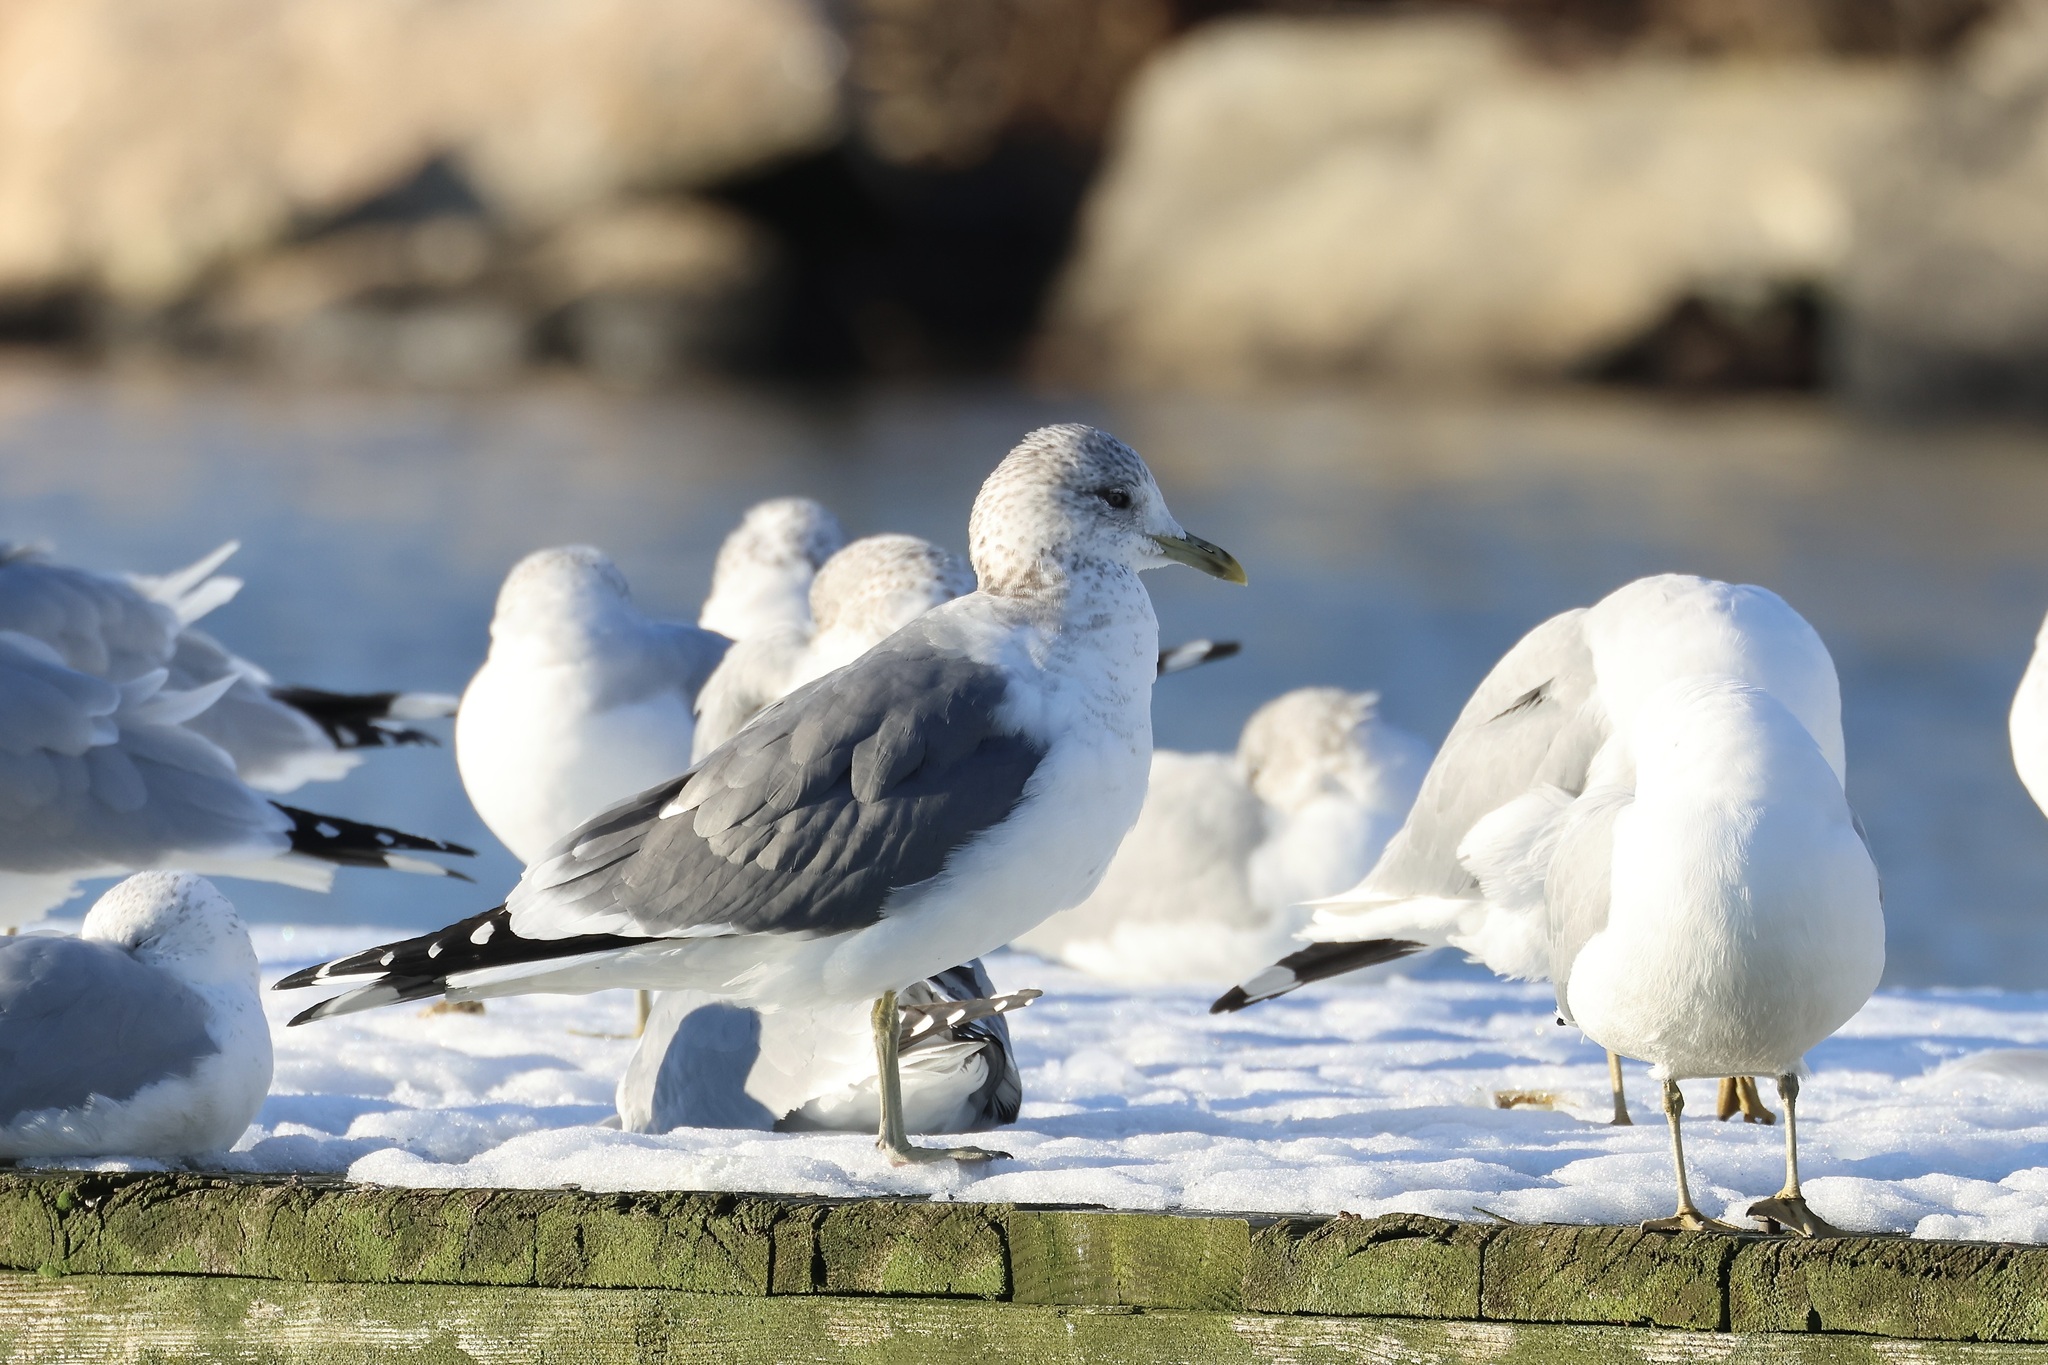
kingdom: Animalia
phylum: Chordata
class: Aves
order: Charadriiformes
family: Laridae
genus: Larus
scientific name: Larus canus
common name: Mew gull
